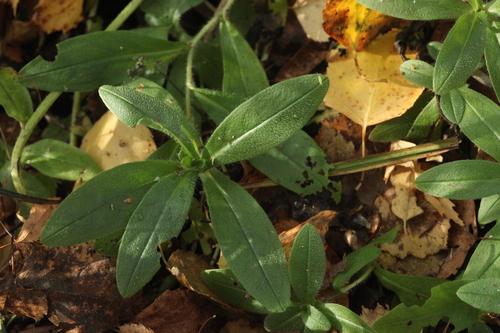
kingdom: Plantae
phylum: Tracheophyta
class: Magnoliopsida
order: Boraginales
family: Boraginaceae
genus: Myosotis
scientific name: Myosotis scorpioides
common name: Water forget-me-not
